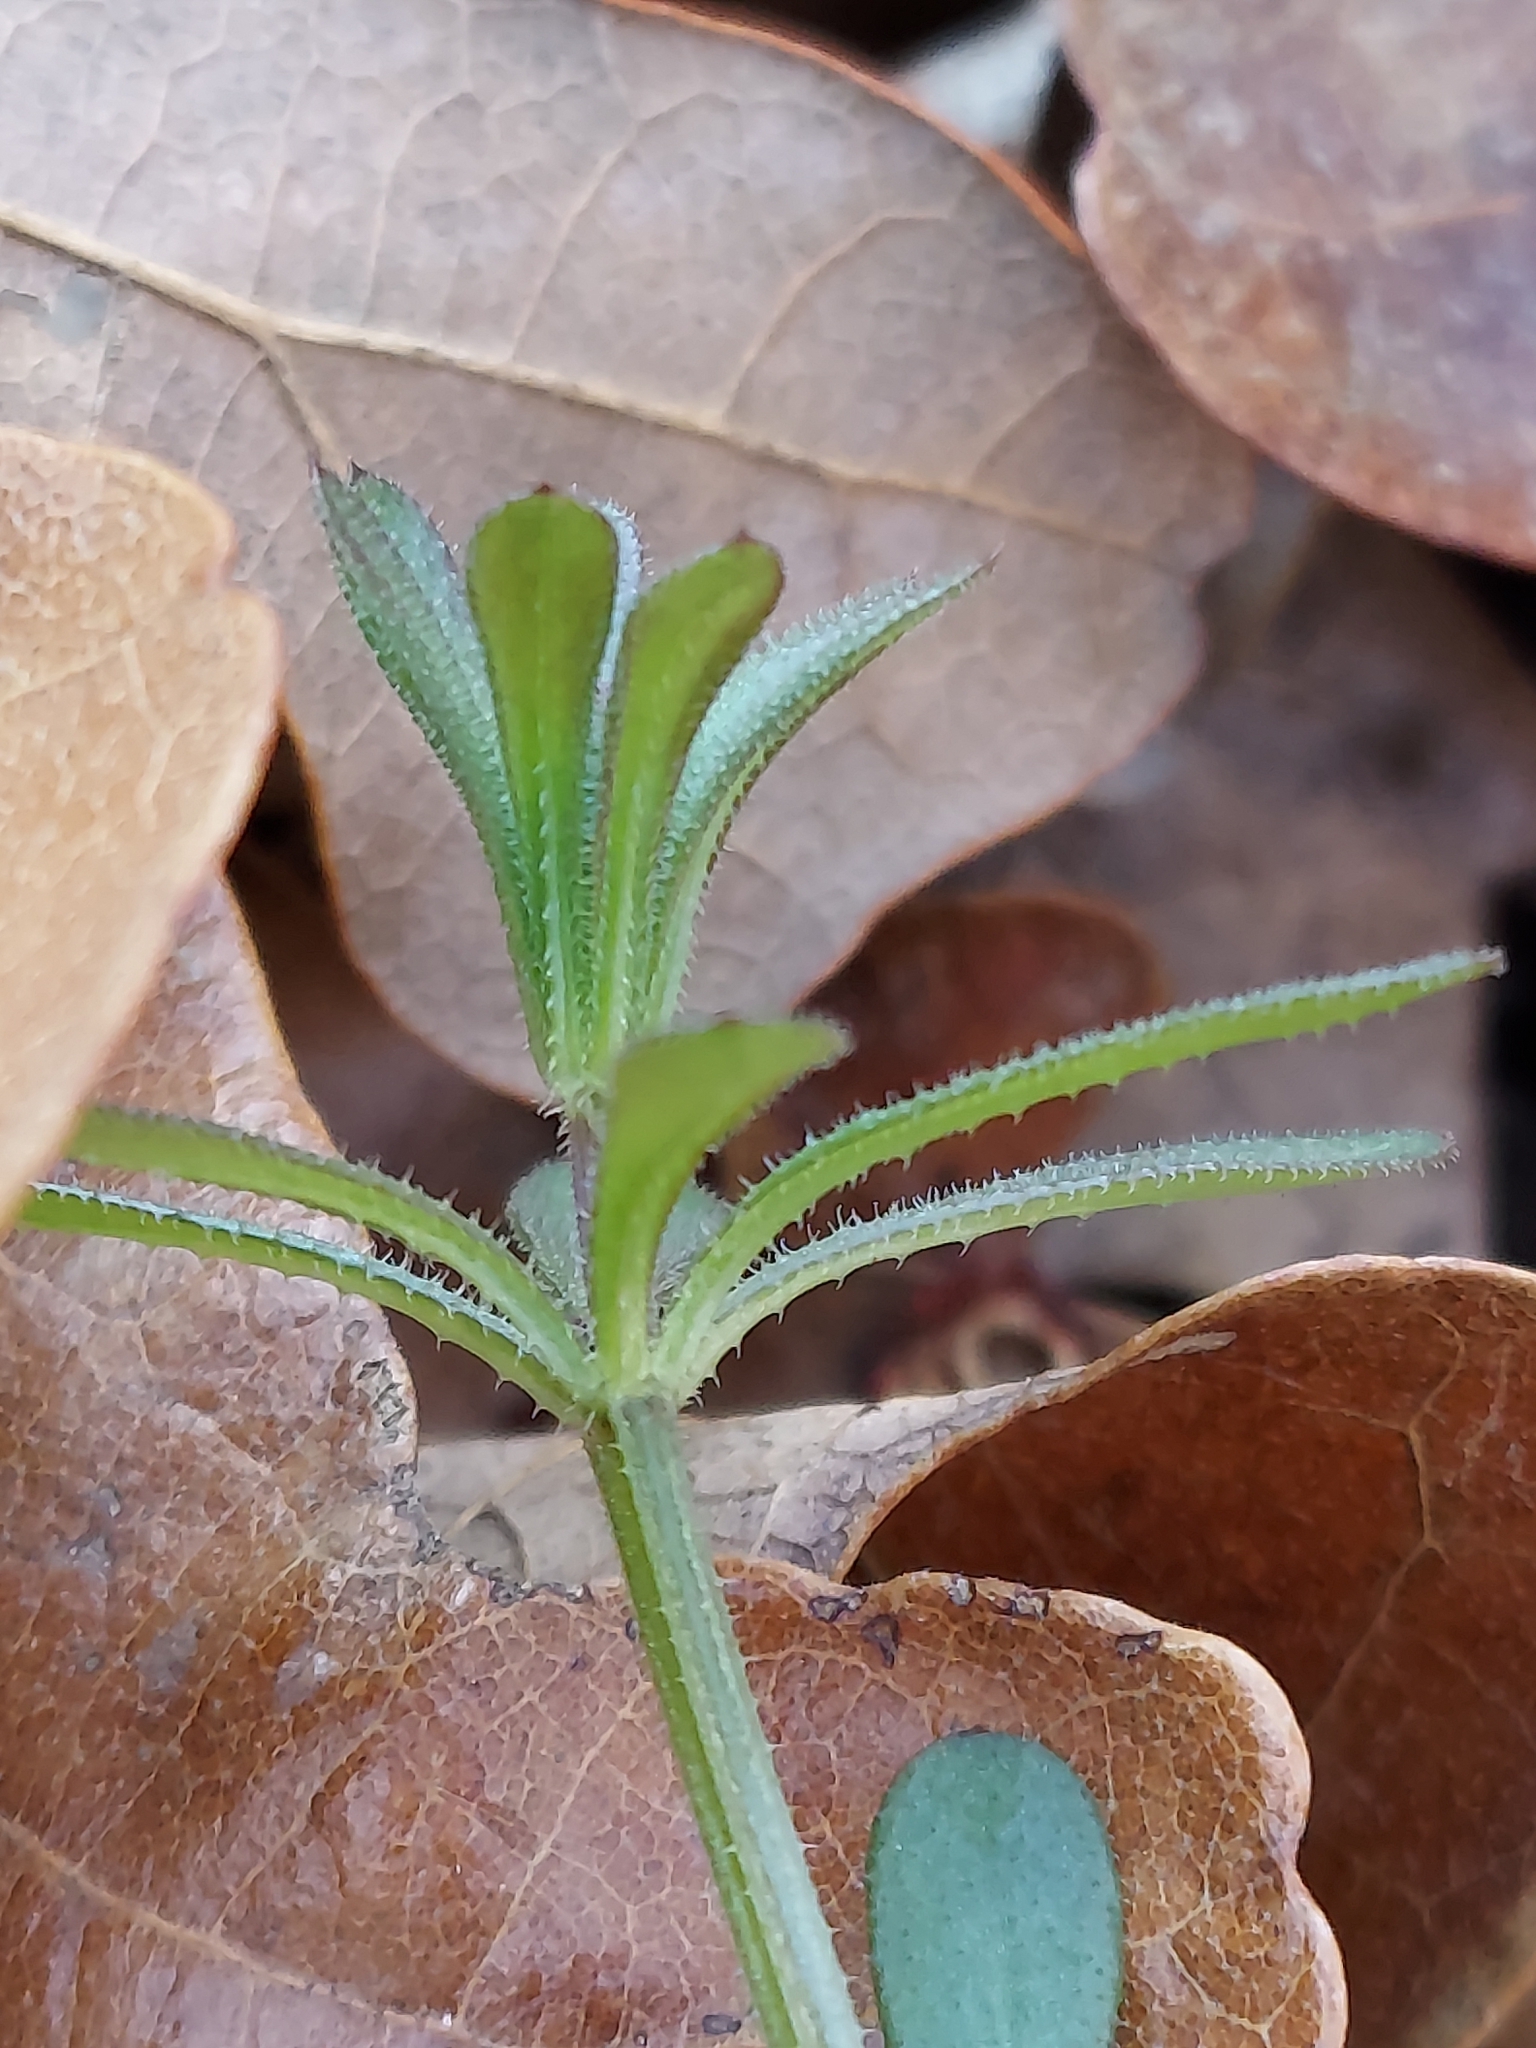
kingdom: Plantae
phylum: Tracheophyta
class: Magnoliopsida
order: Gentianales
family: Rubiaceae
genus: Galium
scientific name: Galium aparine
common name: Cleavers
